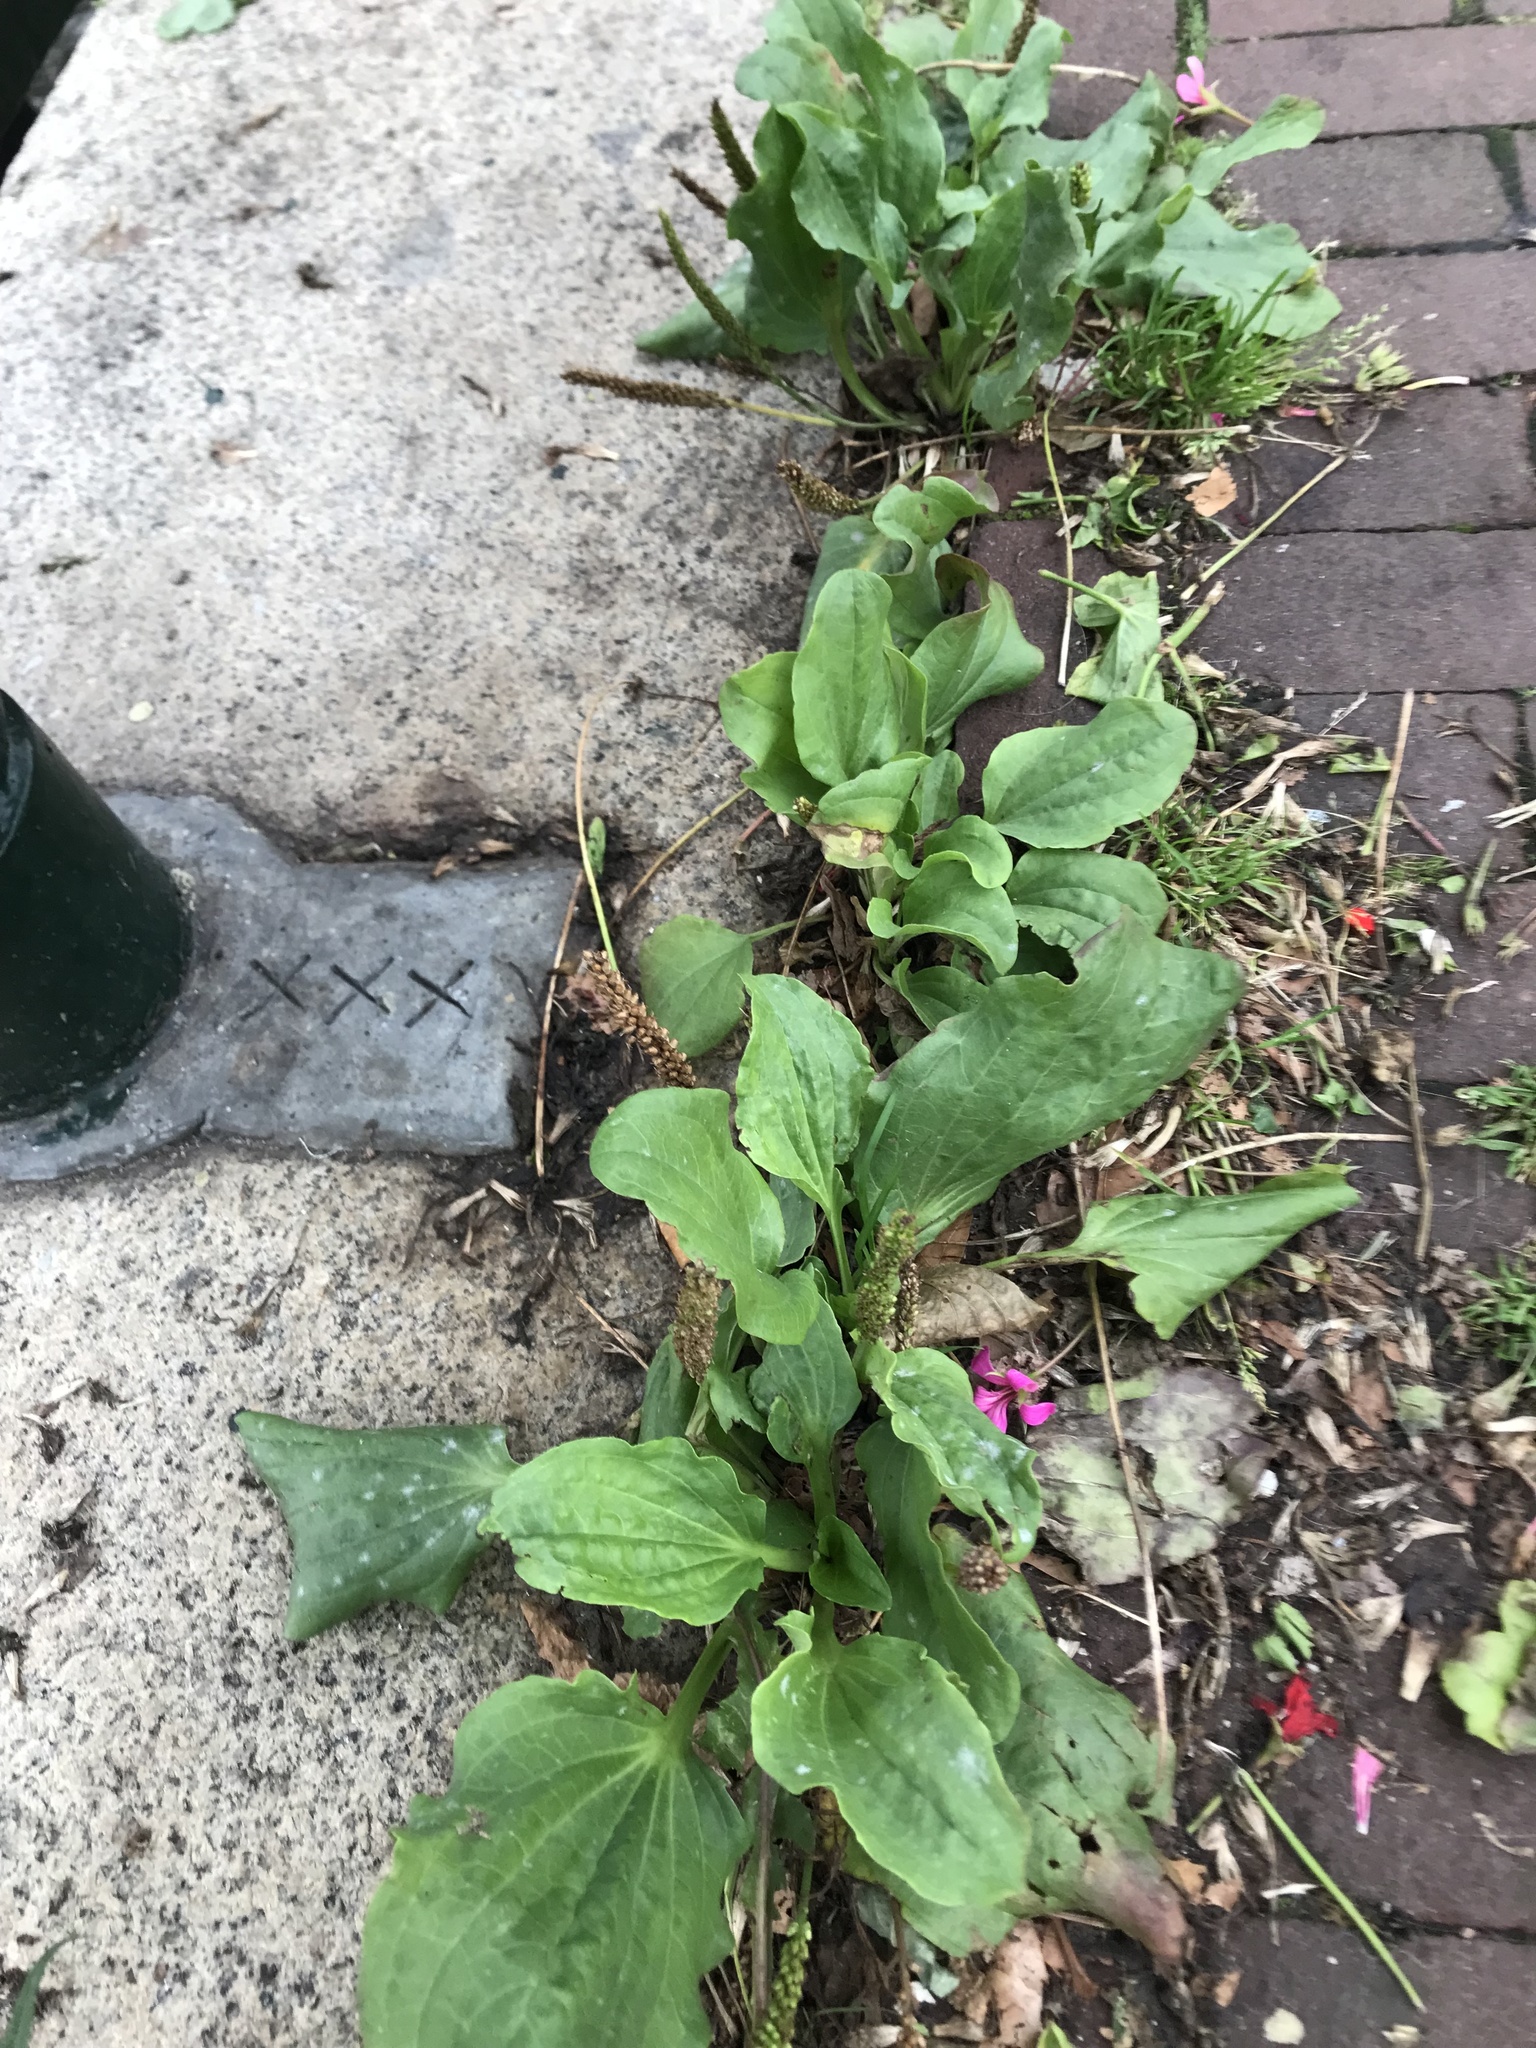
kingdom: Plantae
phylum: Tracheophyta
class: Magnoliopsida
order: Lamiales
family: Plantaginaceae
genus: Plantago
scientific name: Plantago major
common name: Common plantain
